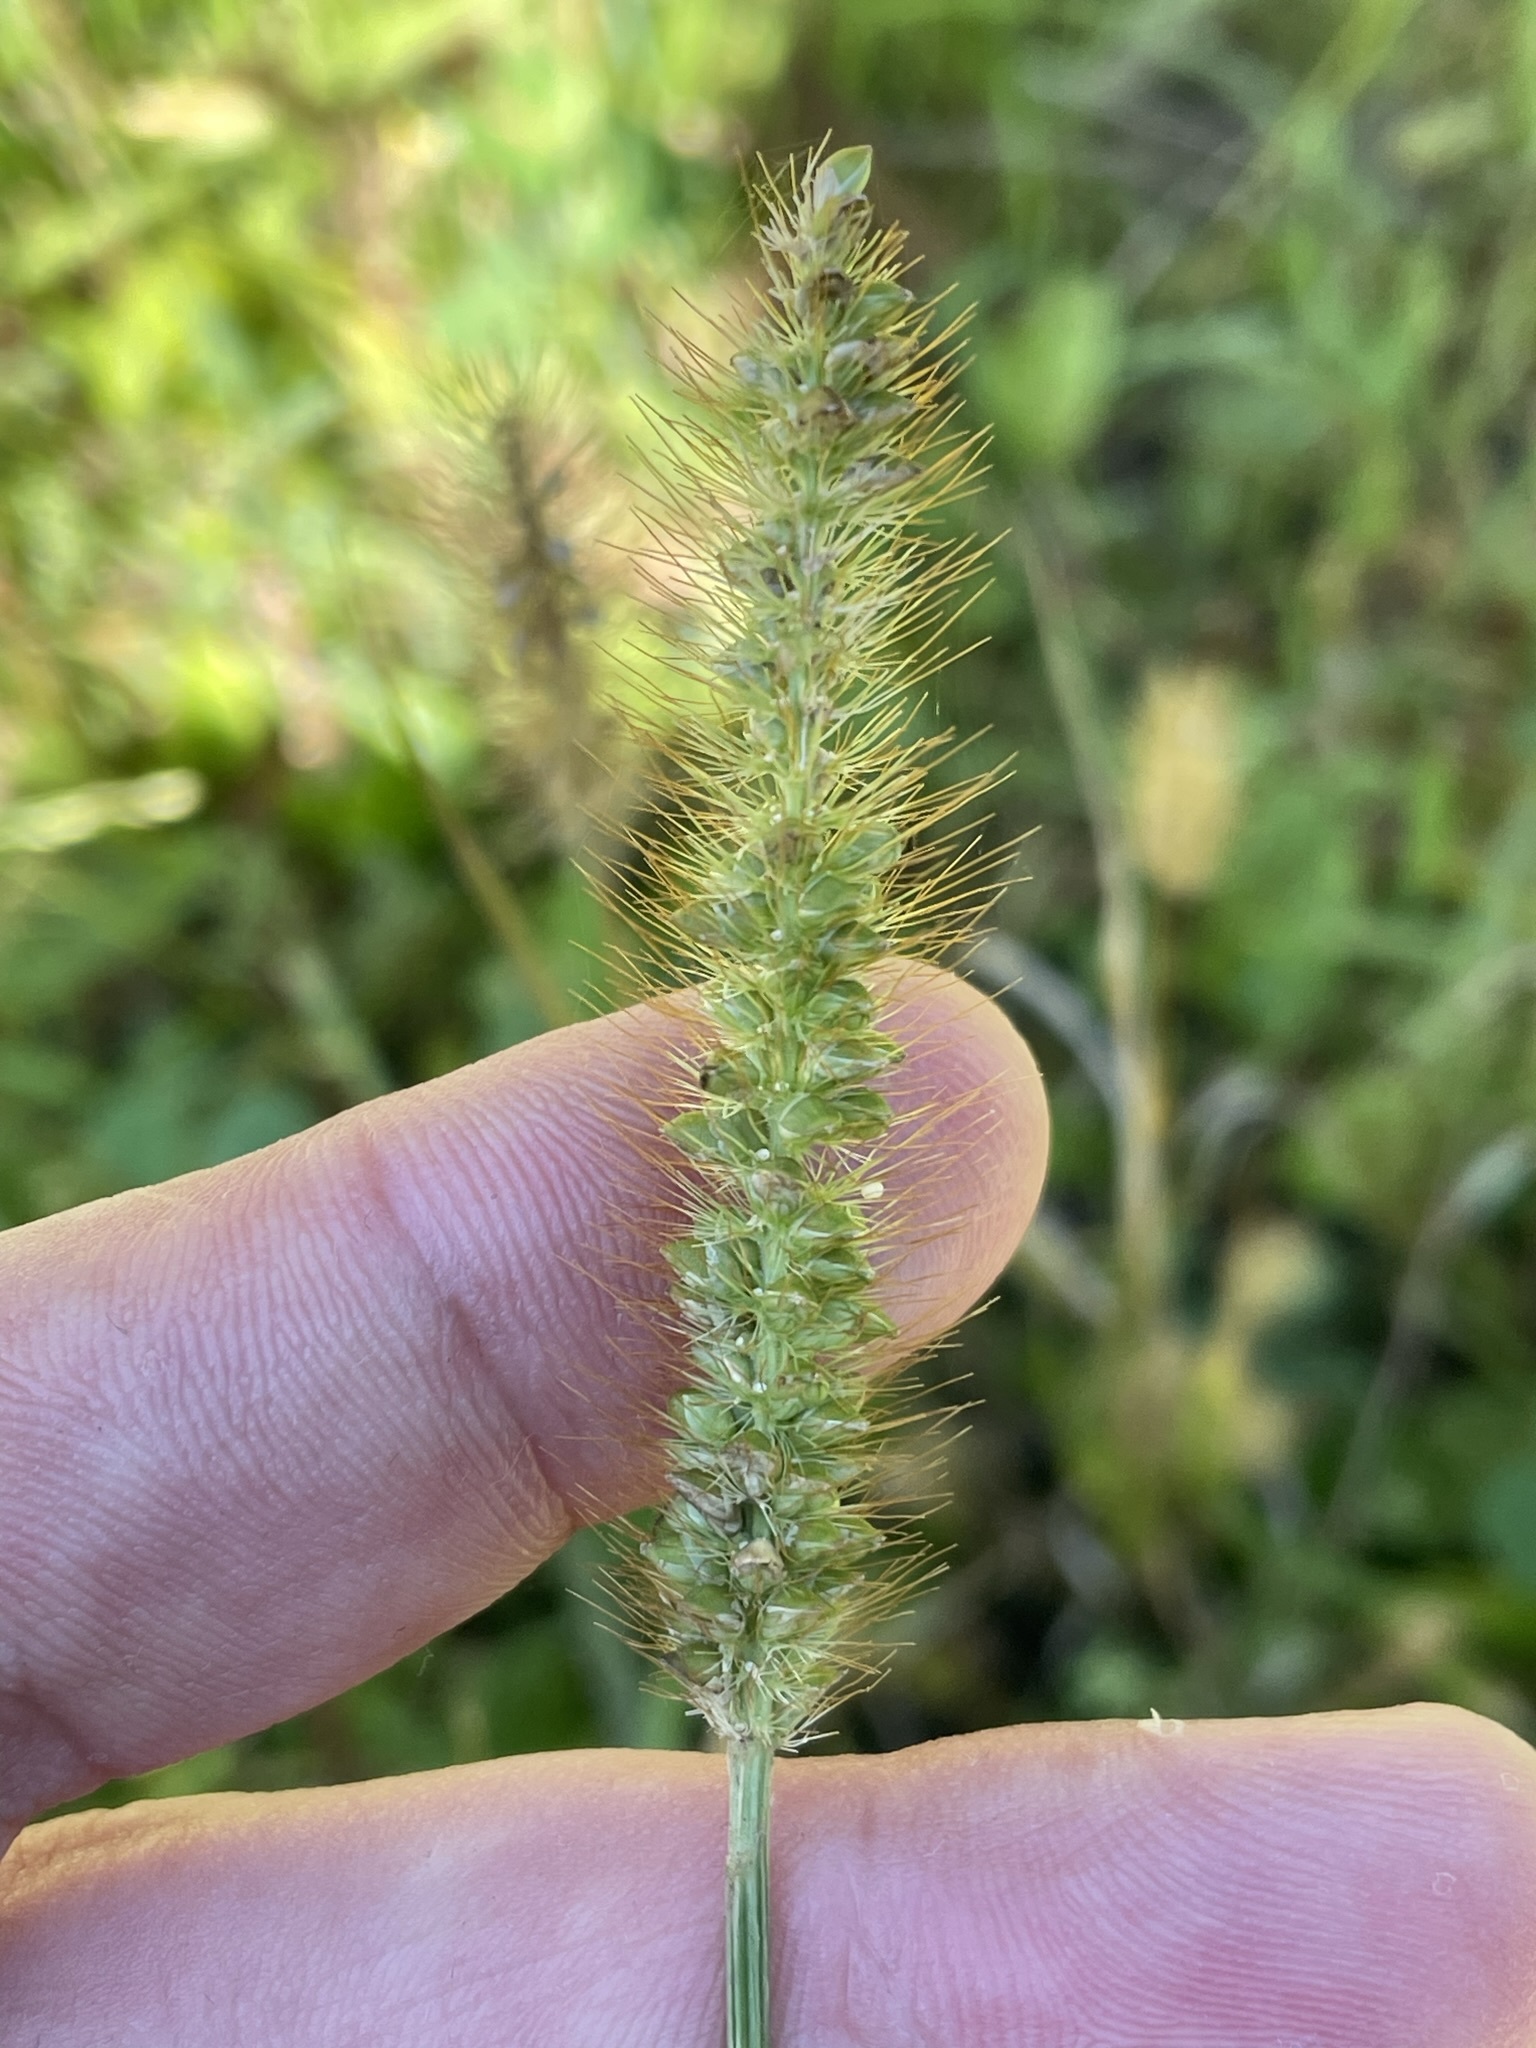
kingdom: Plantae
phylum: Tracheophyta
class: Liliopsida
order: Poales
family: Poaceae
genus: Setaria
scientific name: Setaria pumila
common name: Yellow bristle-grass
